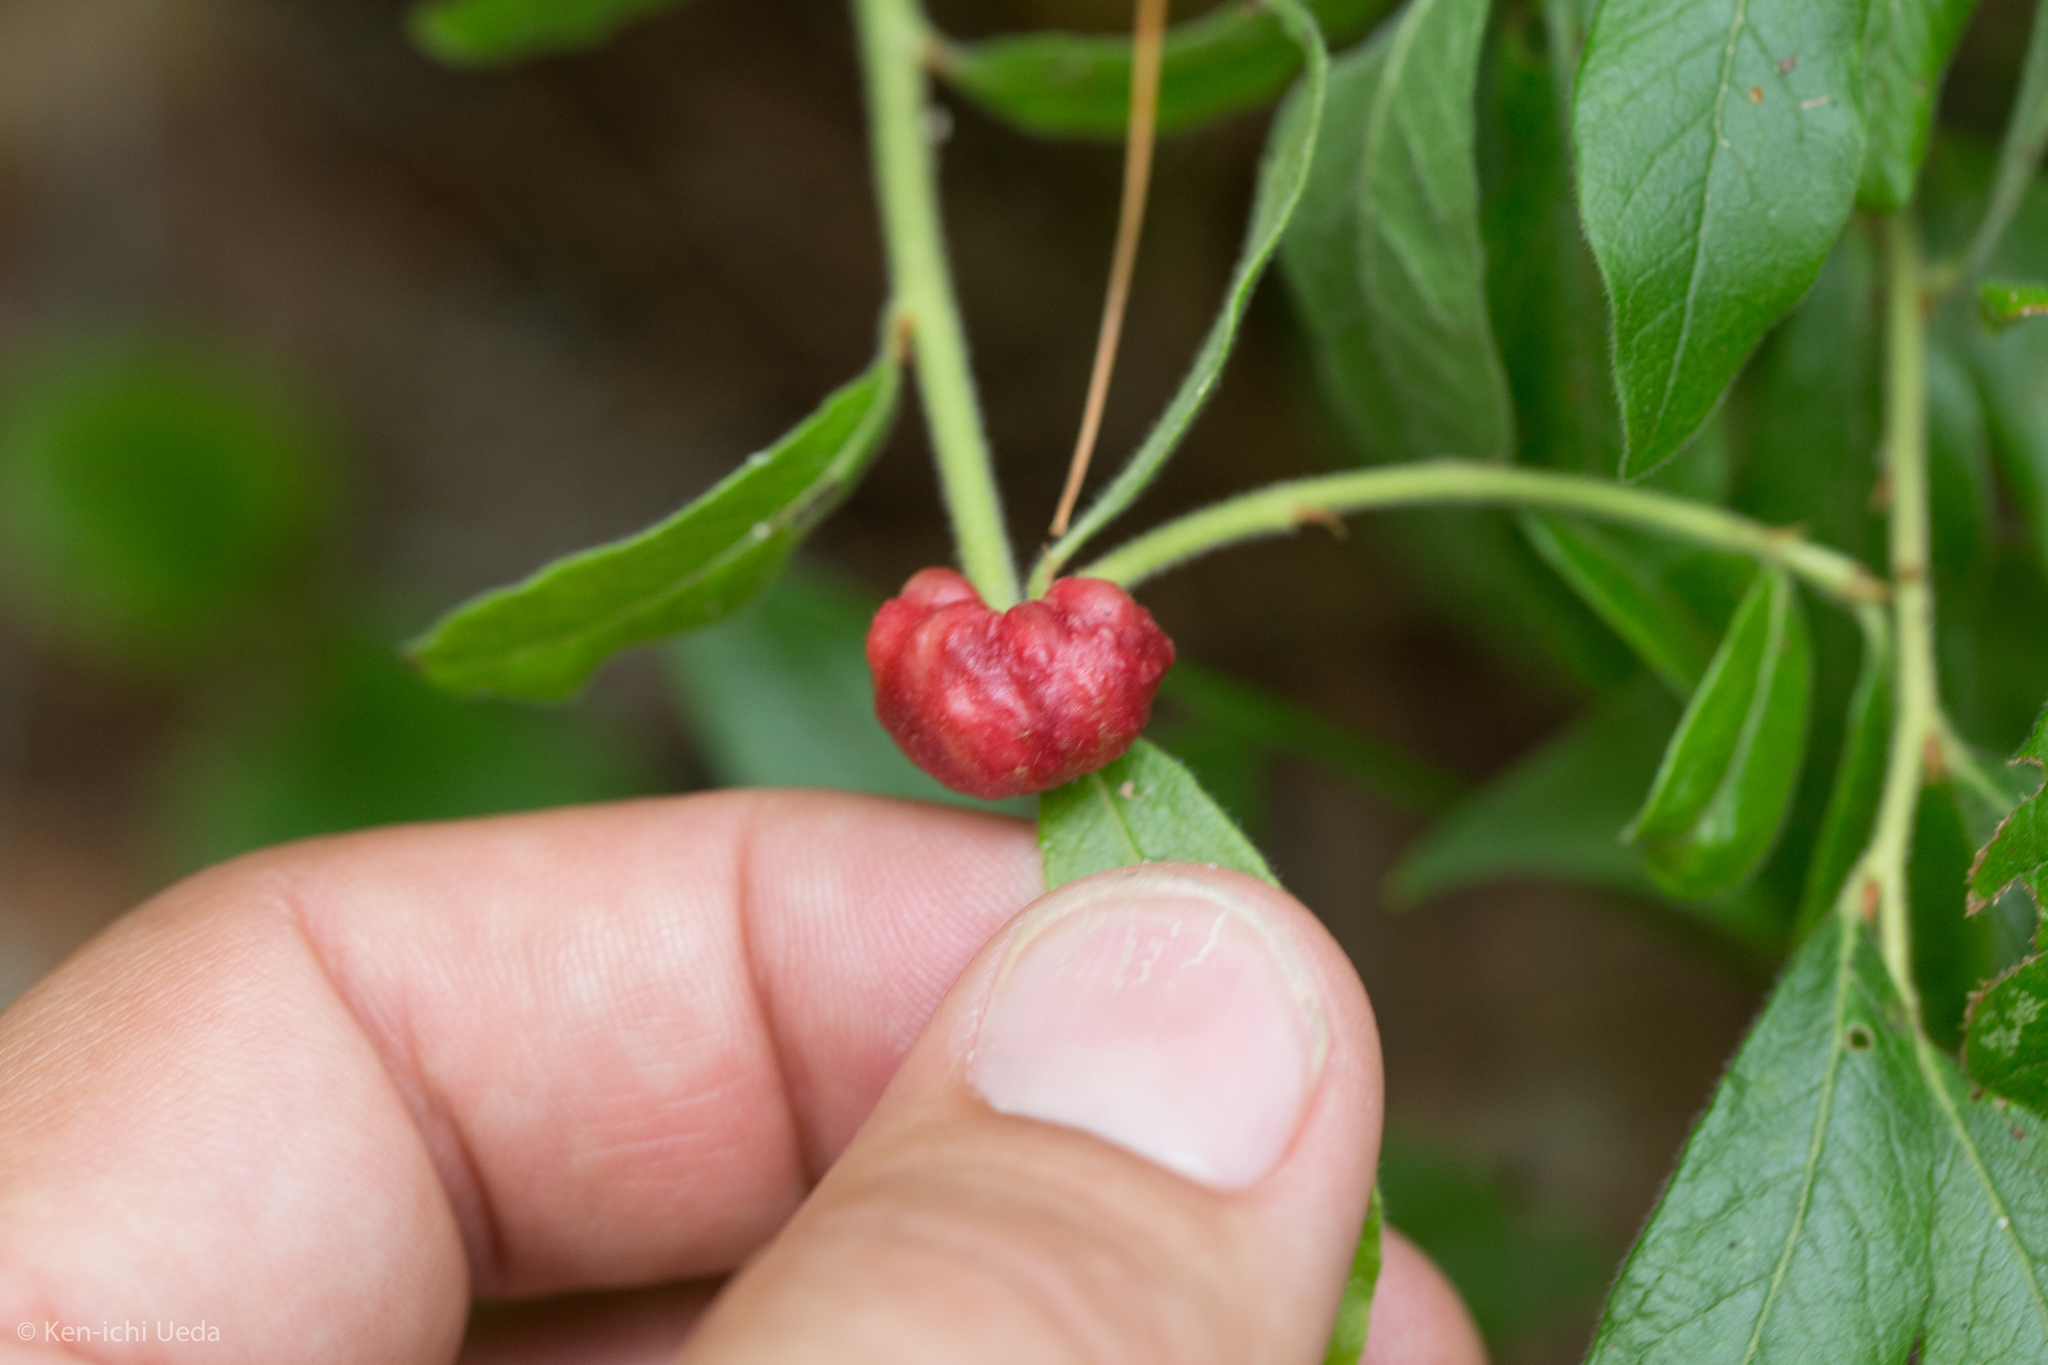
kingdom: Animalia
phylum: Arthropoda
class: Insecta
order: Hymenoptera
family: Pteromalidae
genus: Hemadas
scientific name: Hemadas nubilipennis
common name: Blueberry stem gall wasp
